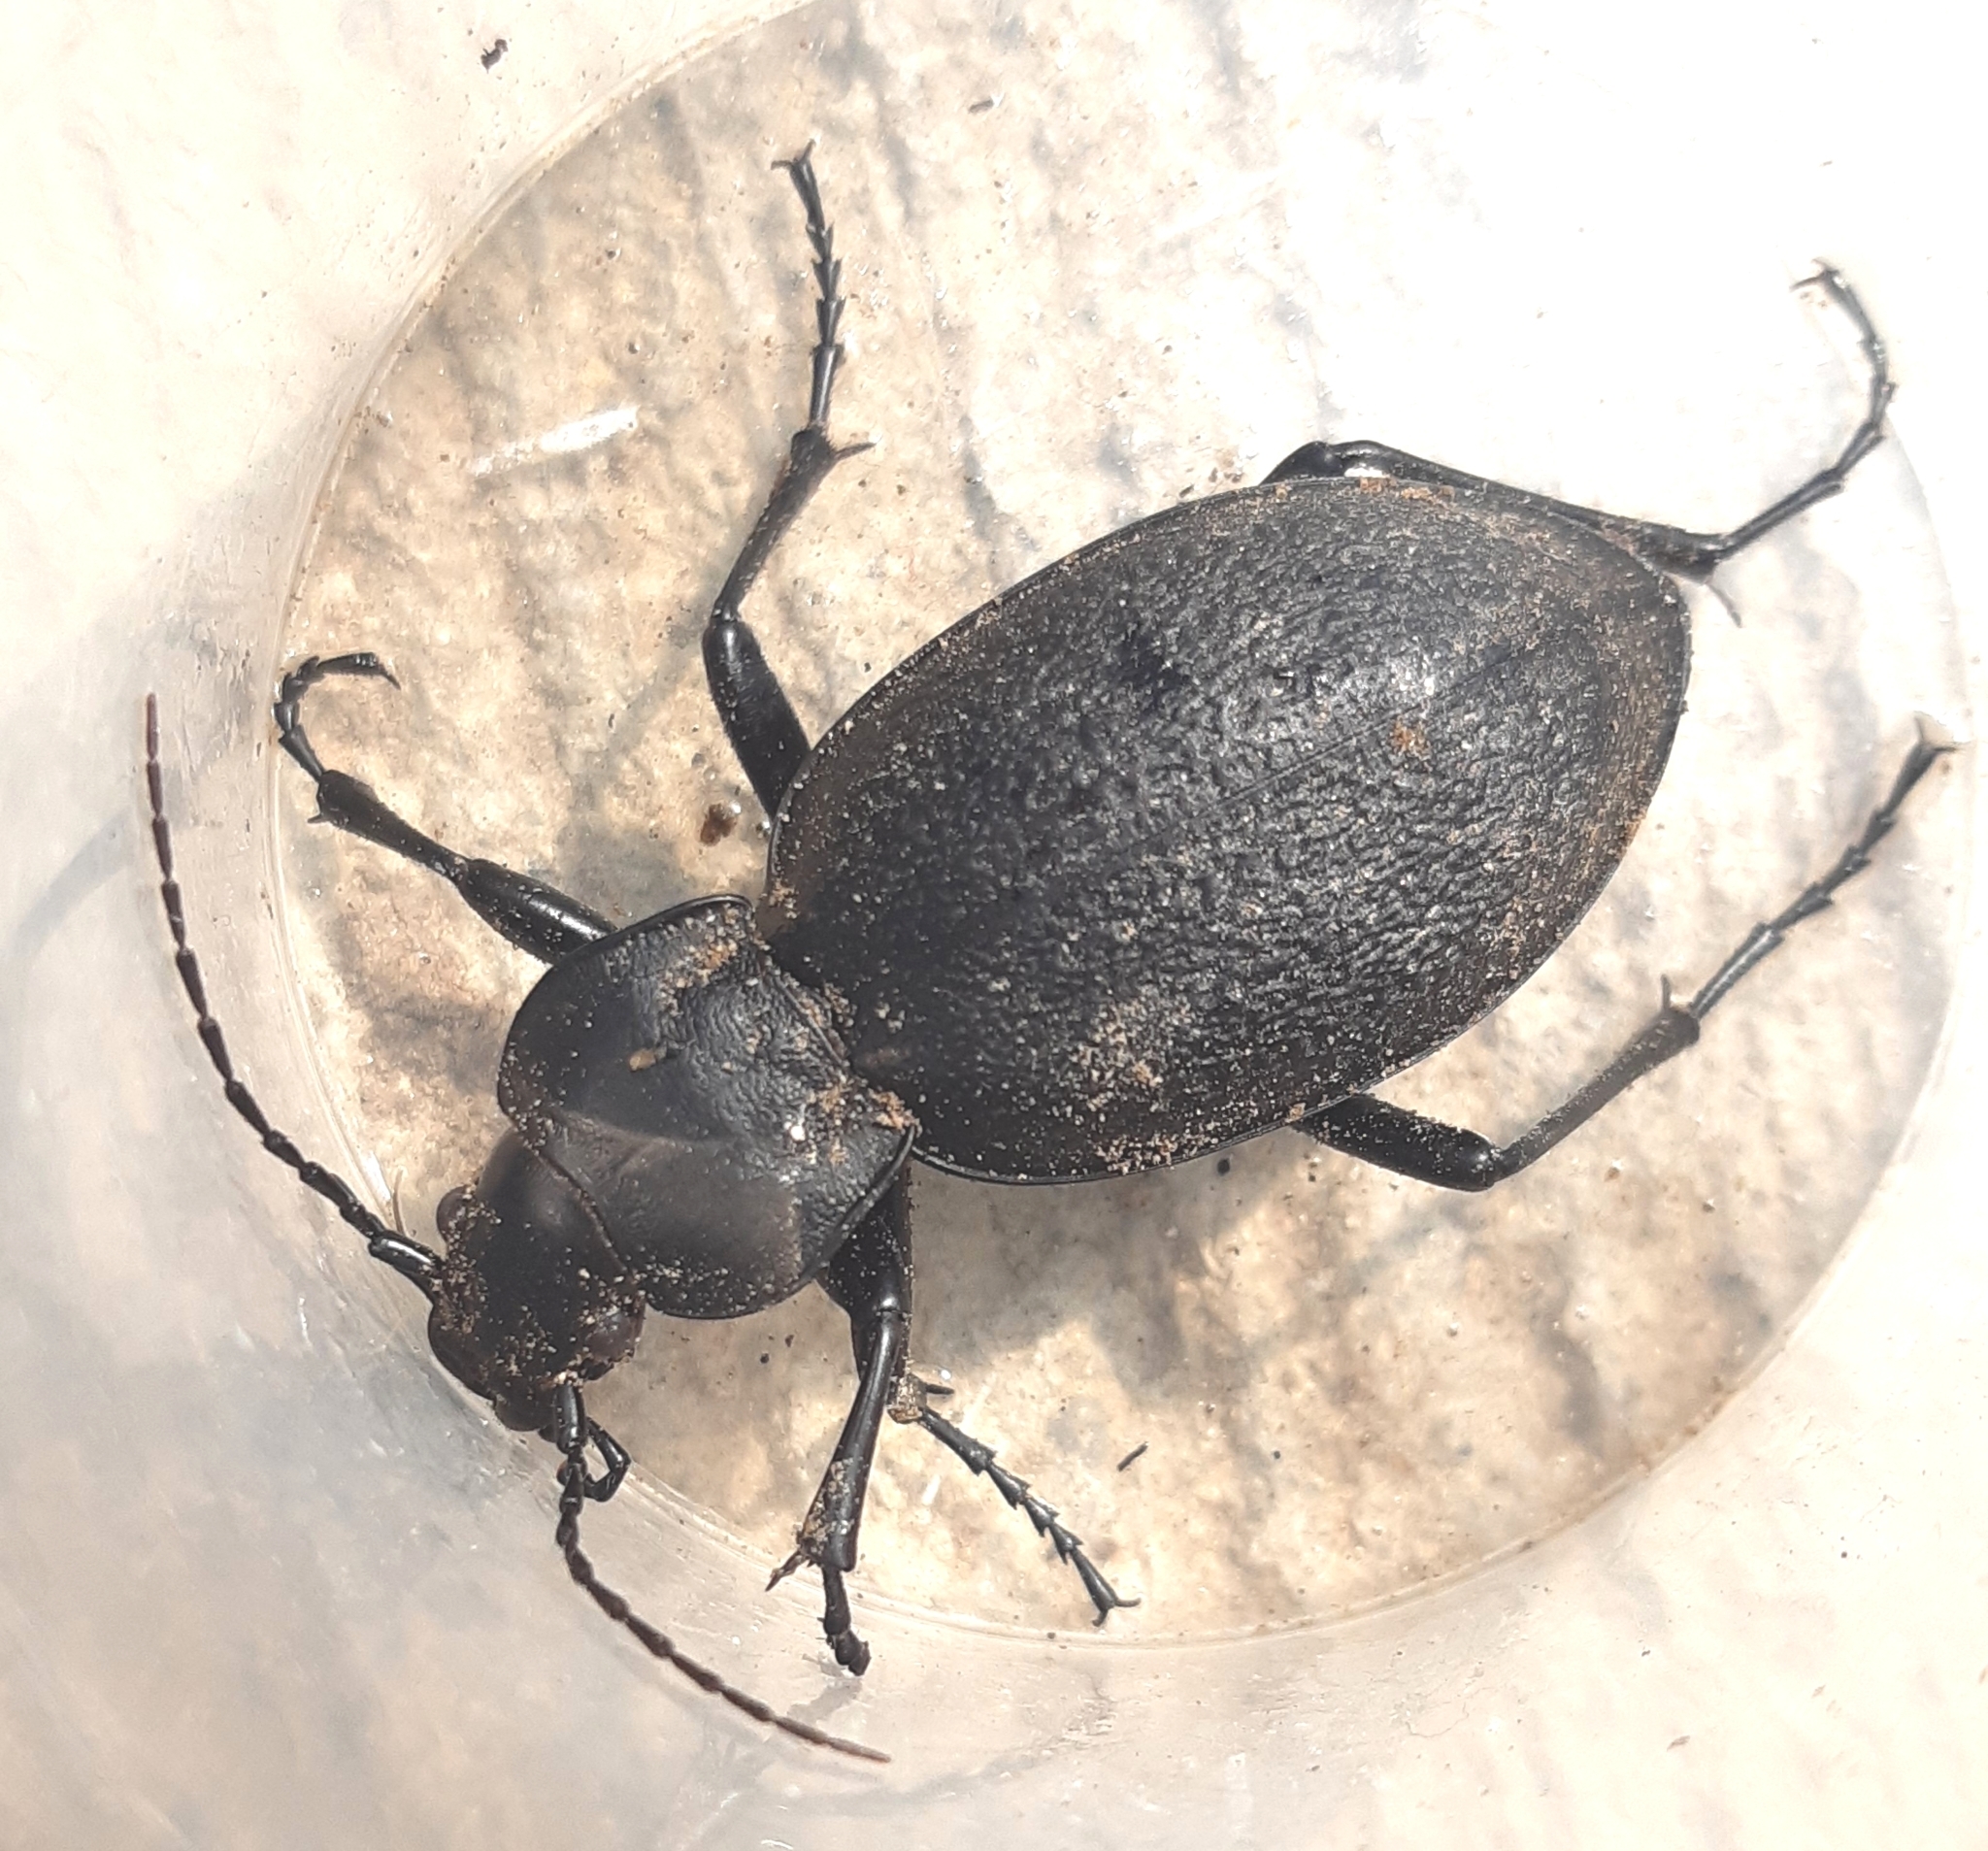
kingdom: Animalia
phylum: Arthropoda
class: Insecta
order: Coleoptera
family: Carabidae
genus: Carabus
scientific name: Carabus coriaceus
